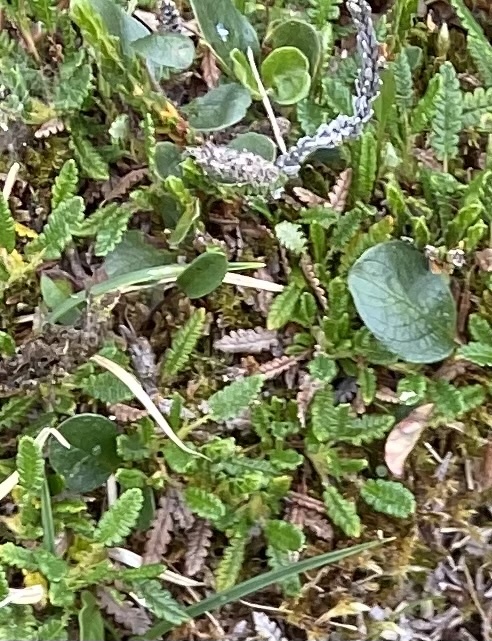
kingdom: Plantae
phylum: Tracheophyta
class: Magnoliopsida
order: Malpighiales
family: Salicaceae
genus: Salix
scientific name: Salix polaris
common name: Polar willow
